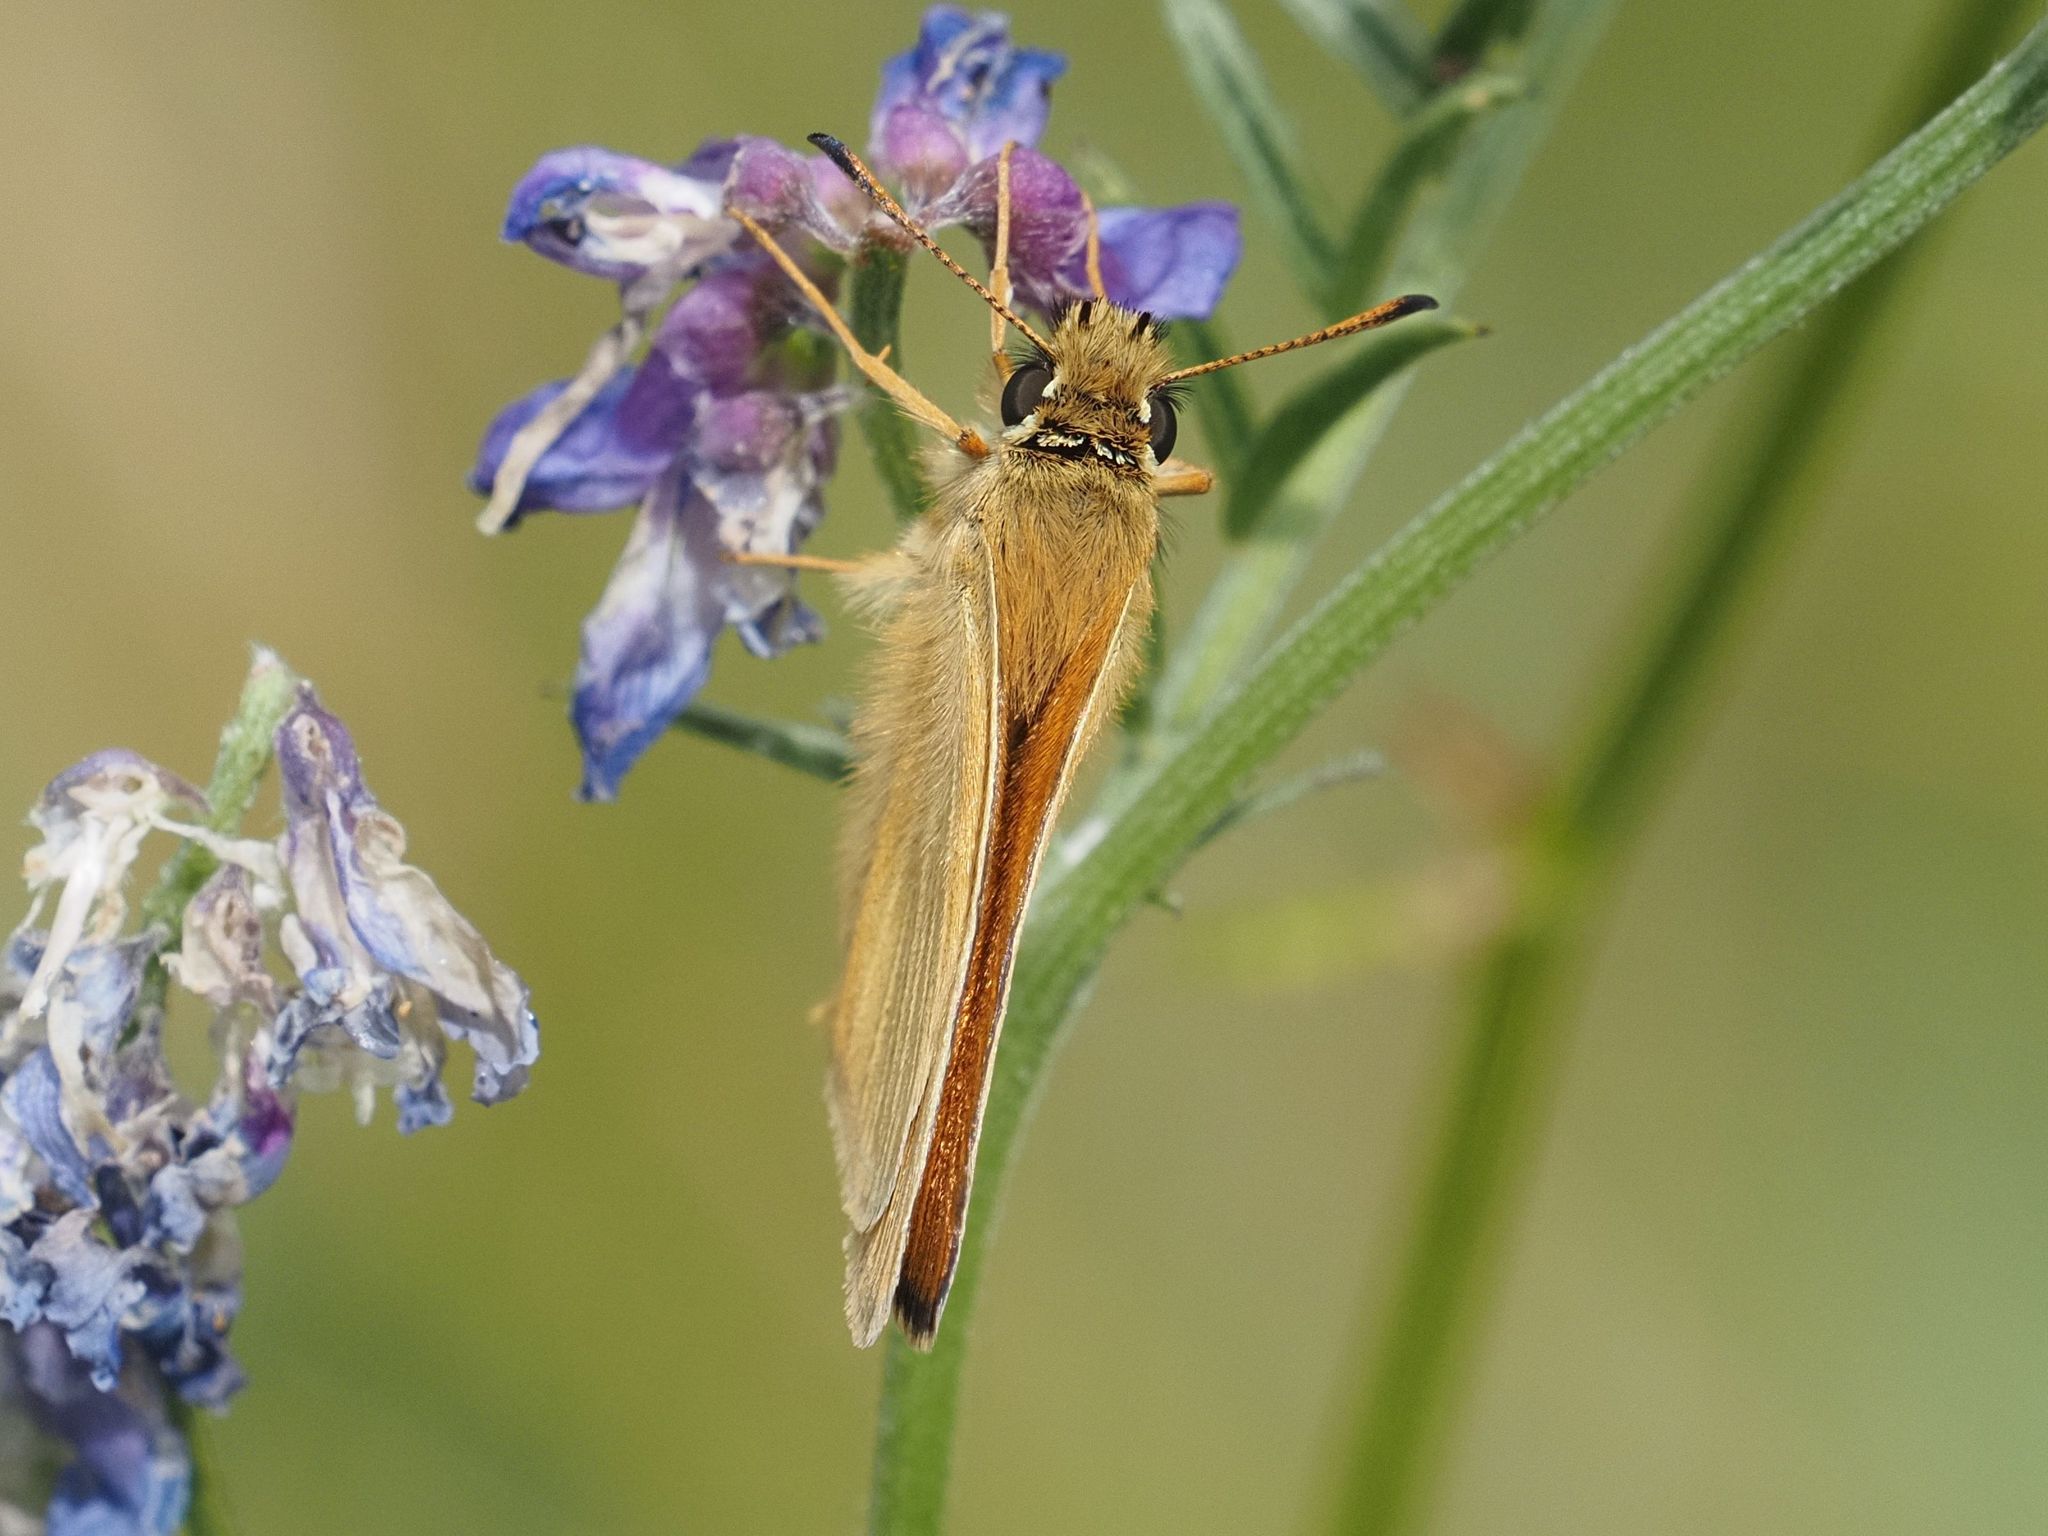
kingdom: Animalia
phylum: Arthropoda
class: Insecta
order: Lepidoptera
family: Hesperiidae
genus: Thymelicus
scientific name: Thymelicus lineola
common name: Essex skipper
